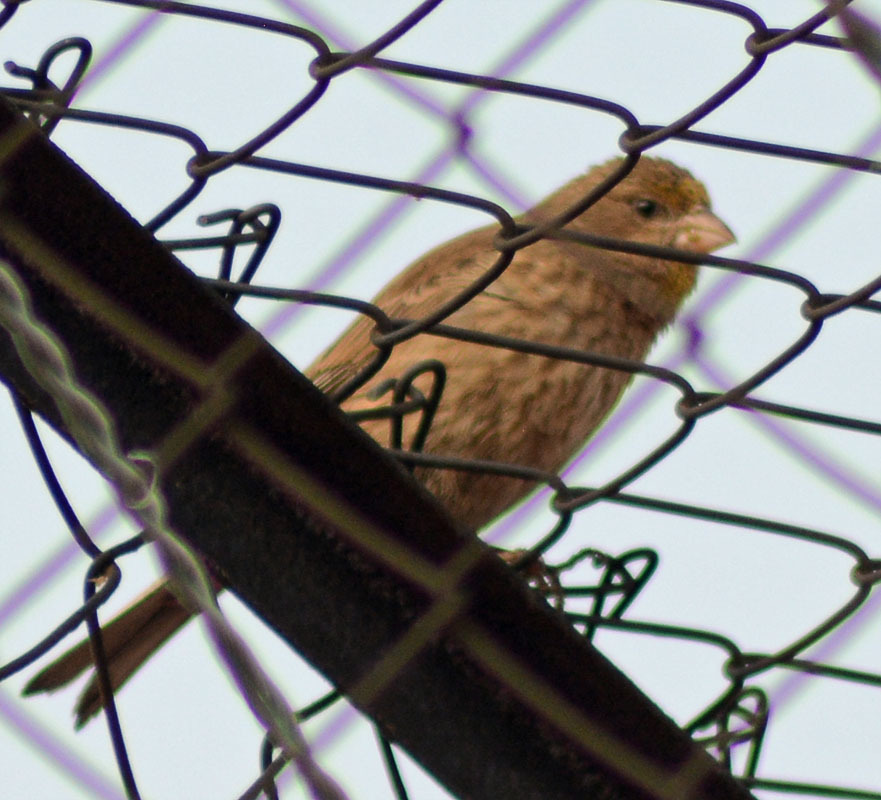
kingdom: Animalia
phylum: Chordata
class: Aves
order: Passeriformes
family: Fringillidae
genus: Haemorhous
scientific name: Haemorhous mexicanus
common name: House finch
